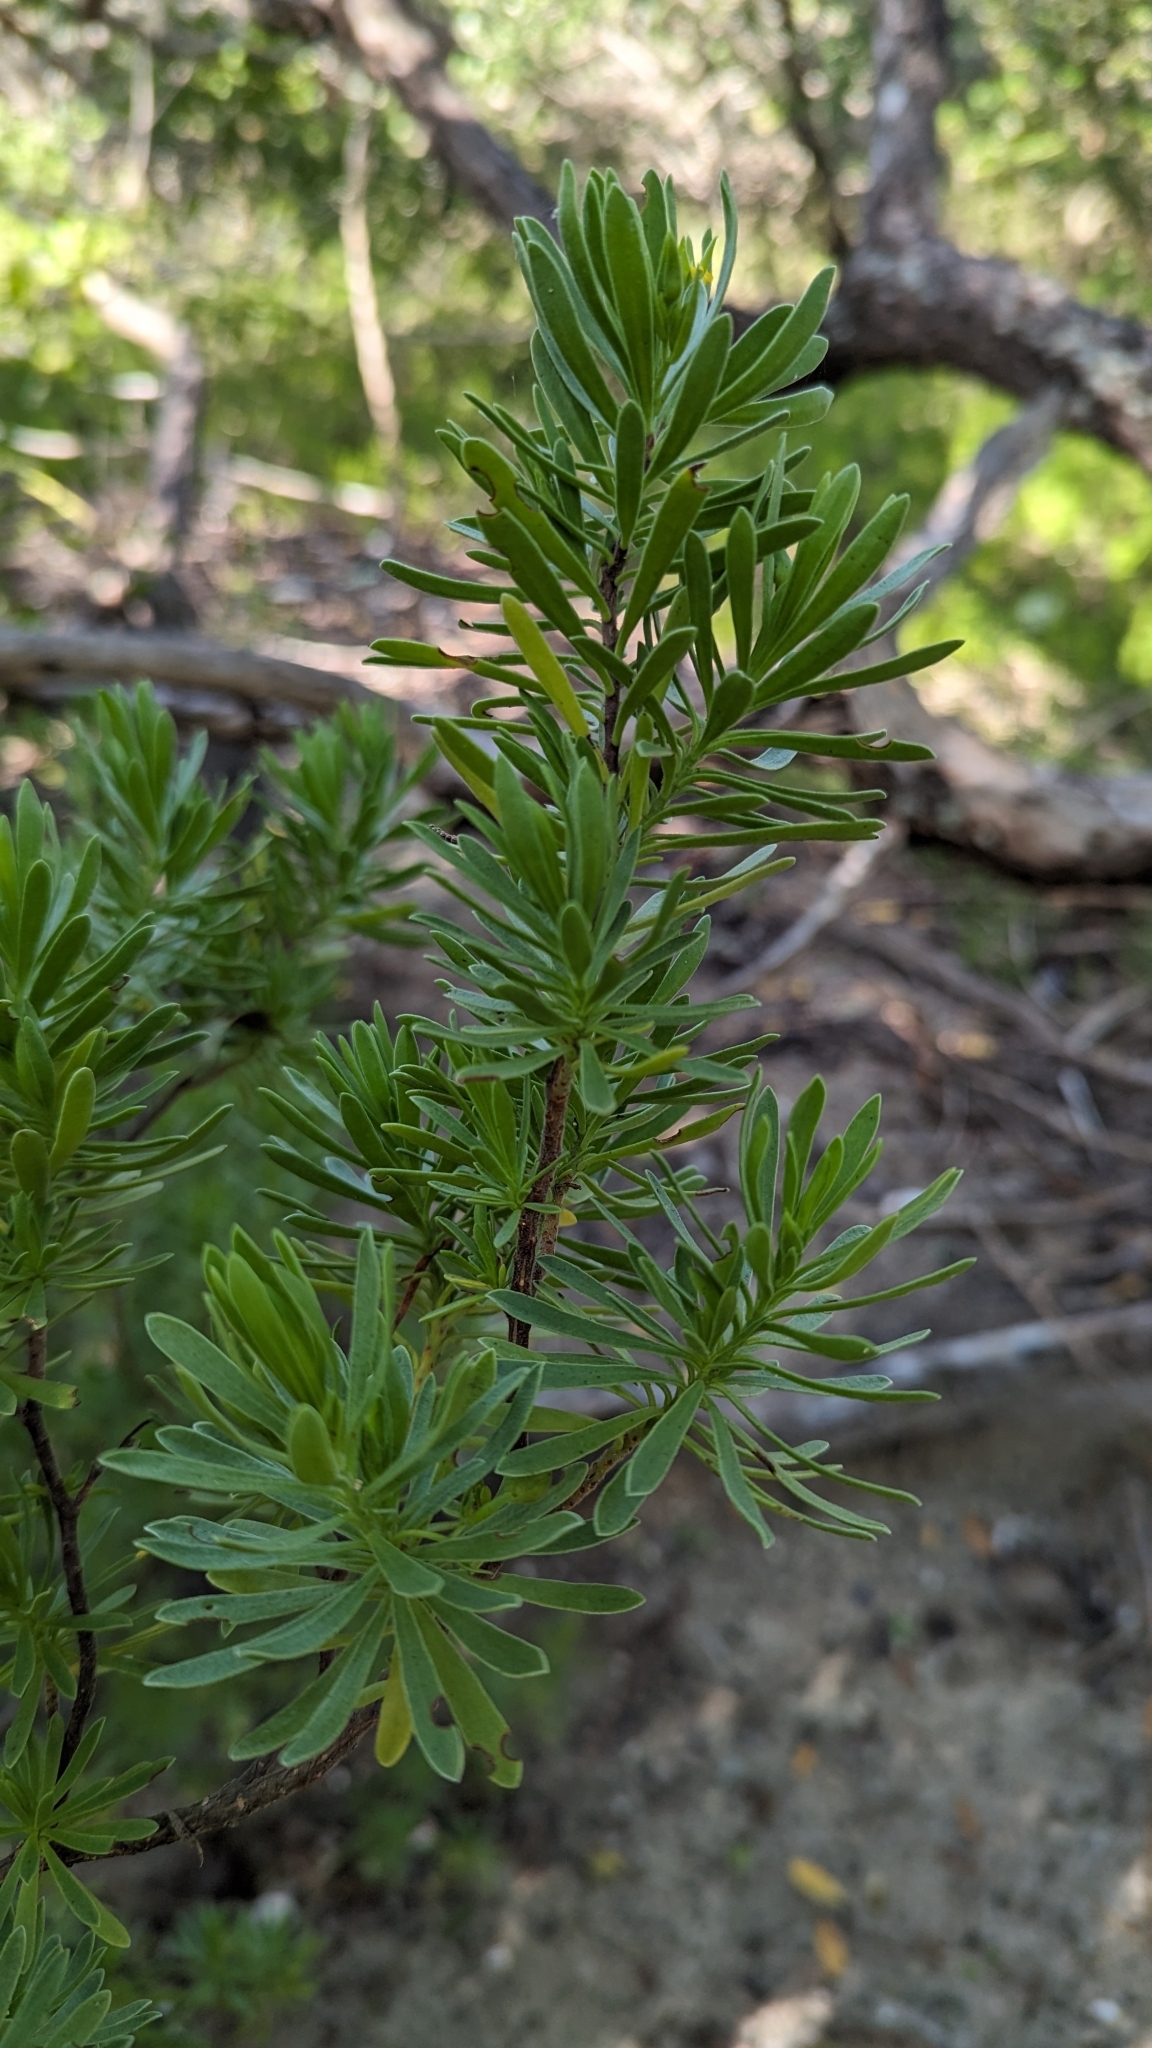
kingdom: Plantae
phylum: Tracheophyta
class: Magnoliopsida
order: Fabales
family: Surianaceae
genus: Suriana
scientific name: Suriana maritima
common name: Bay-cedar
